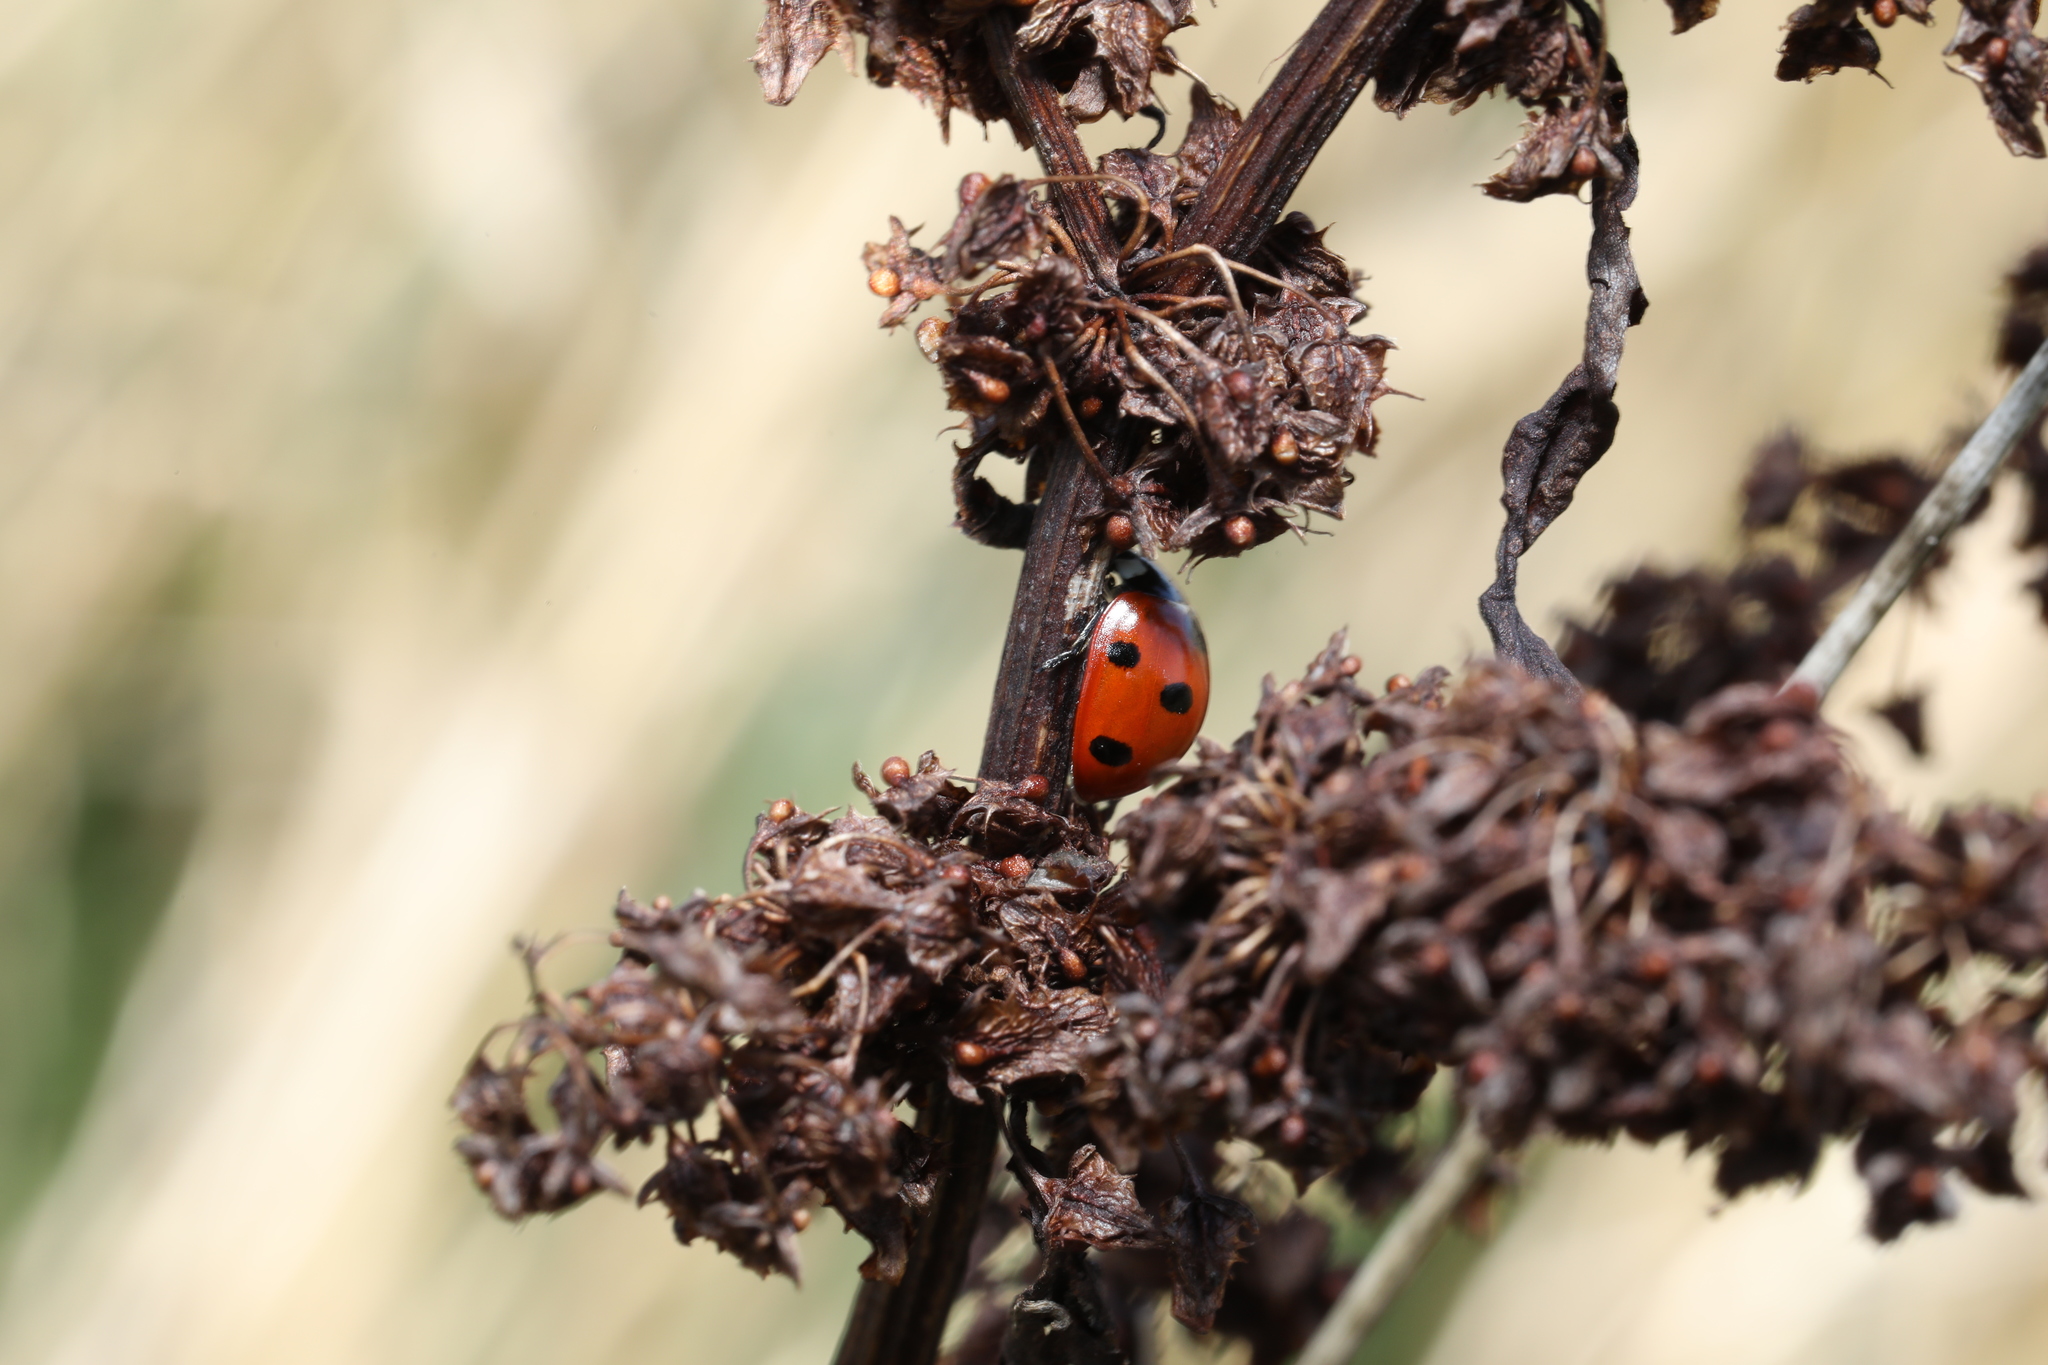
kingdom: Animalia
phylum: Arthropoda
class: Insecta
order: Coleoptera
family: Coccinellidae
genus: Coccinella
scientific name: Coccinella septempunctata
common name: Sevenspotted lady beetle
